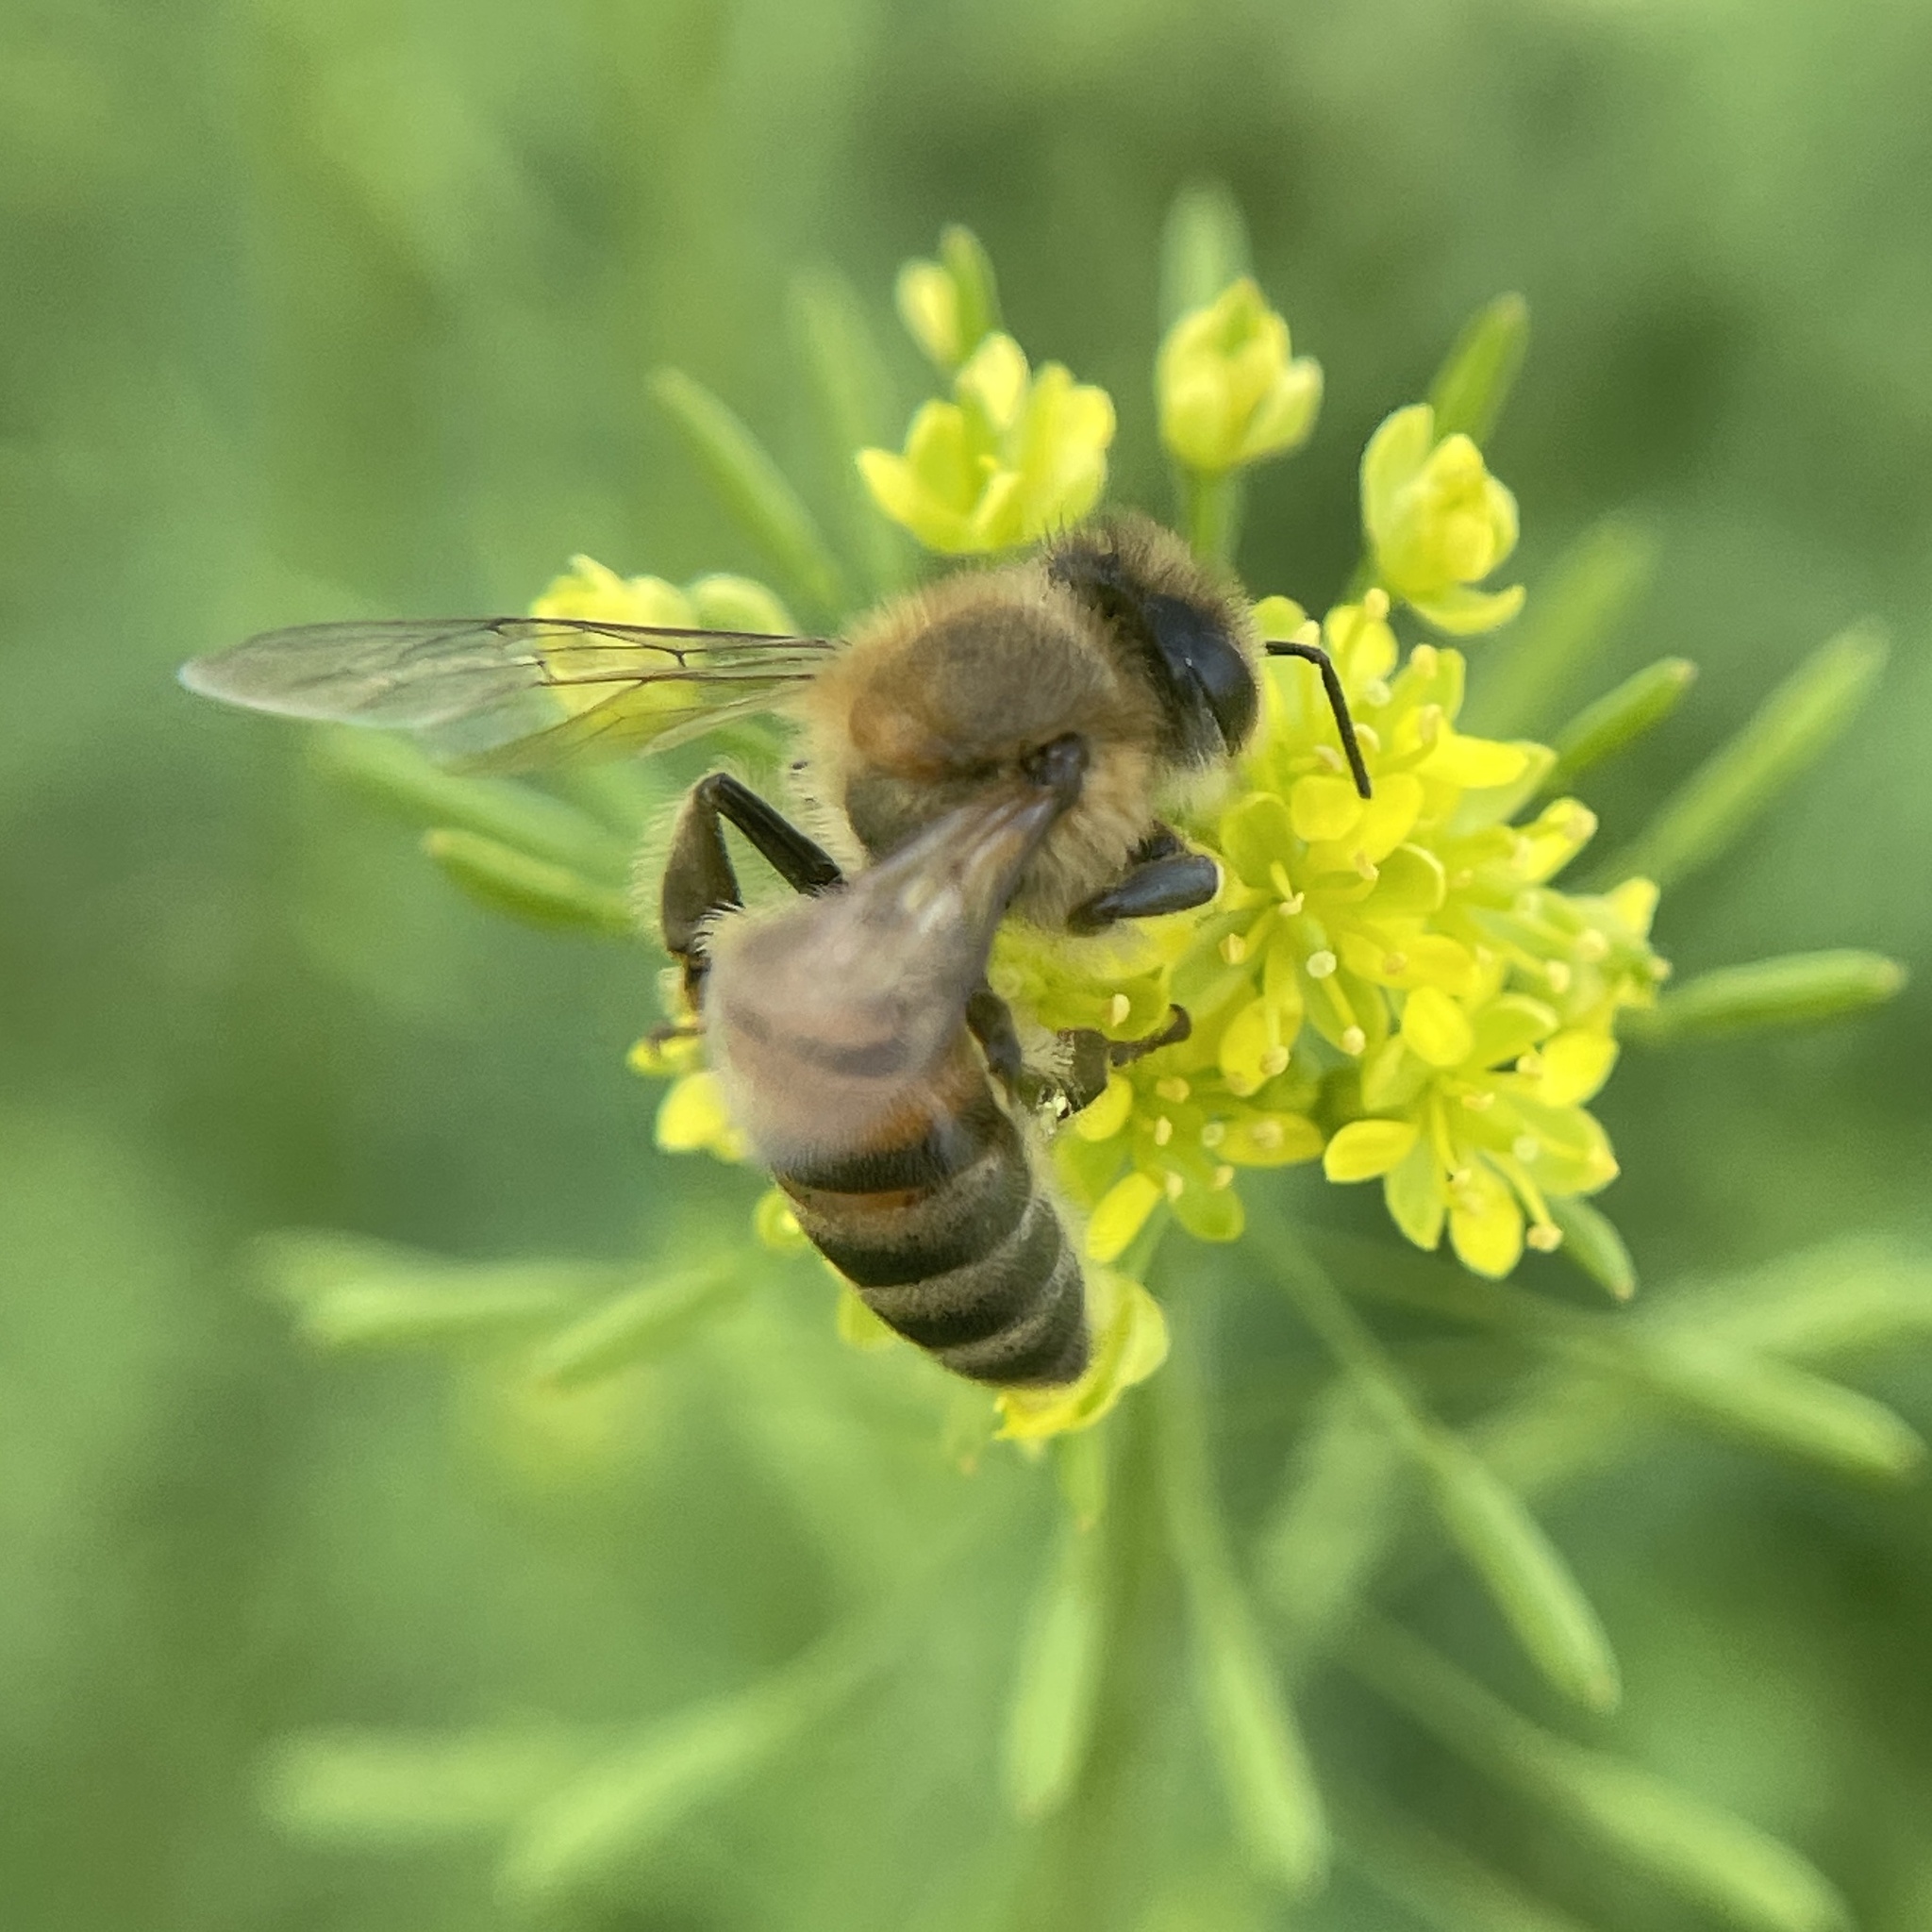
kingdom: Animalia
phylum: Arthropoda
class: Insecta
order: Hymenoptera
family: Apidae
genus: Apis
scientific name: Apis mellifera
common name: Honey bee
